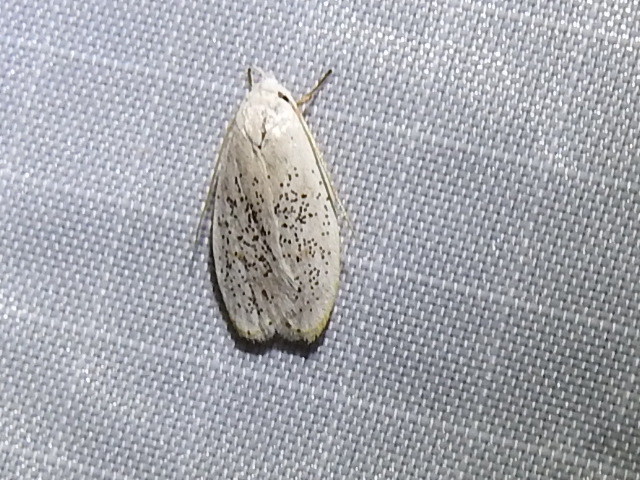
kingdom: Animalia
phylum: Arthropoda
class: Insecta
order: Lepidoptera
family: Peleopodidae
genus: Durrantia
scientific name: Durrantia piperatella
